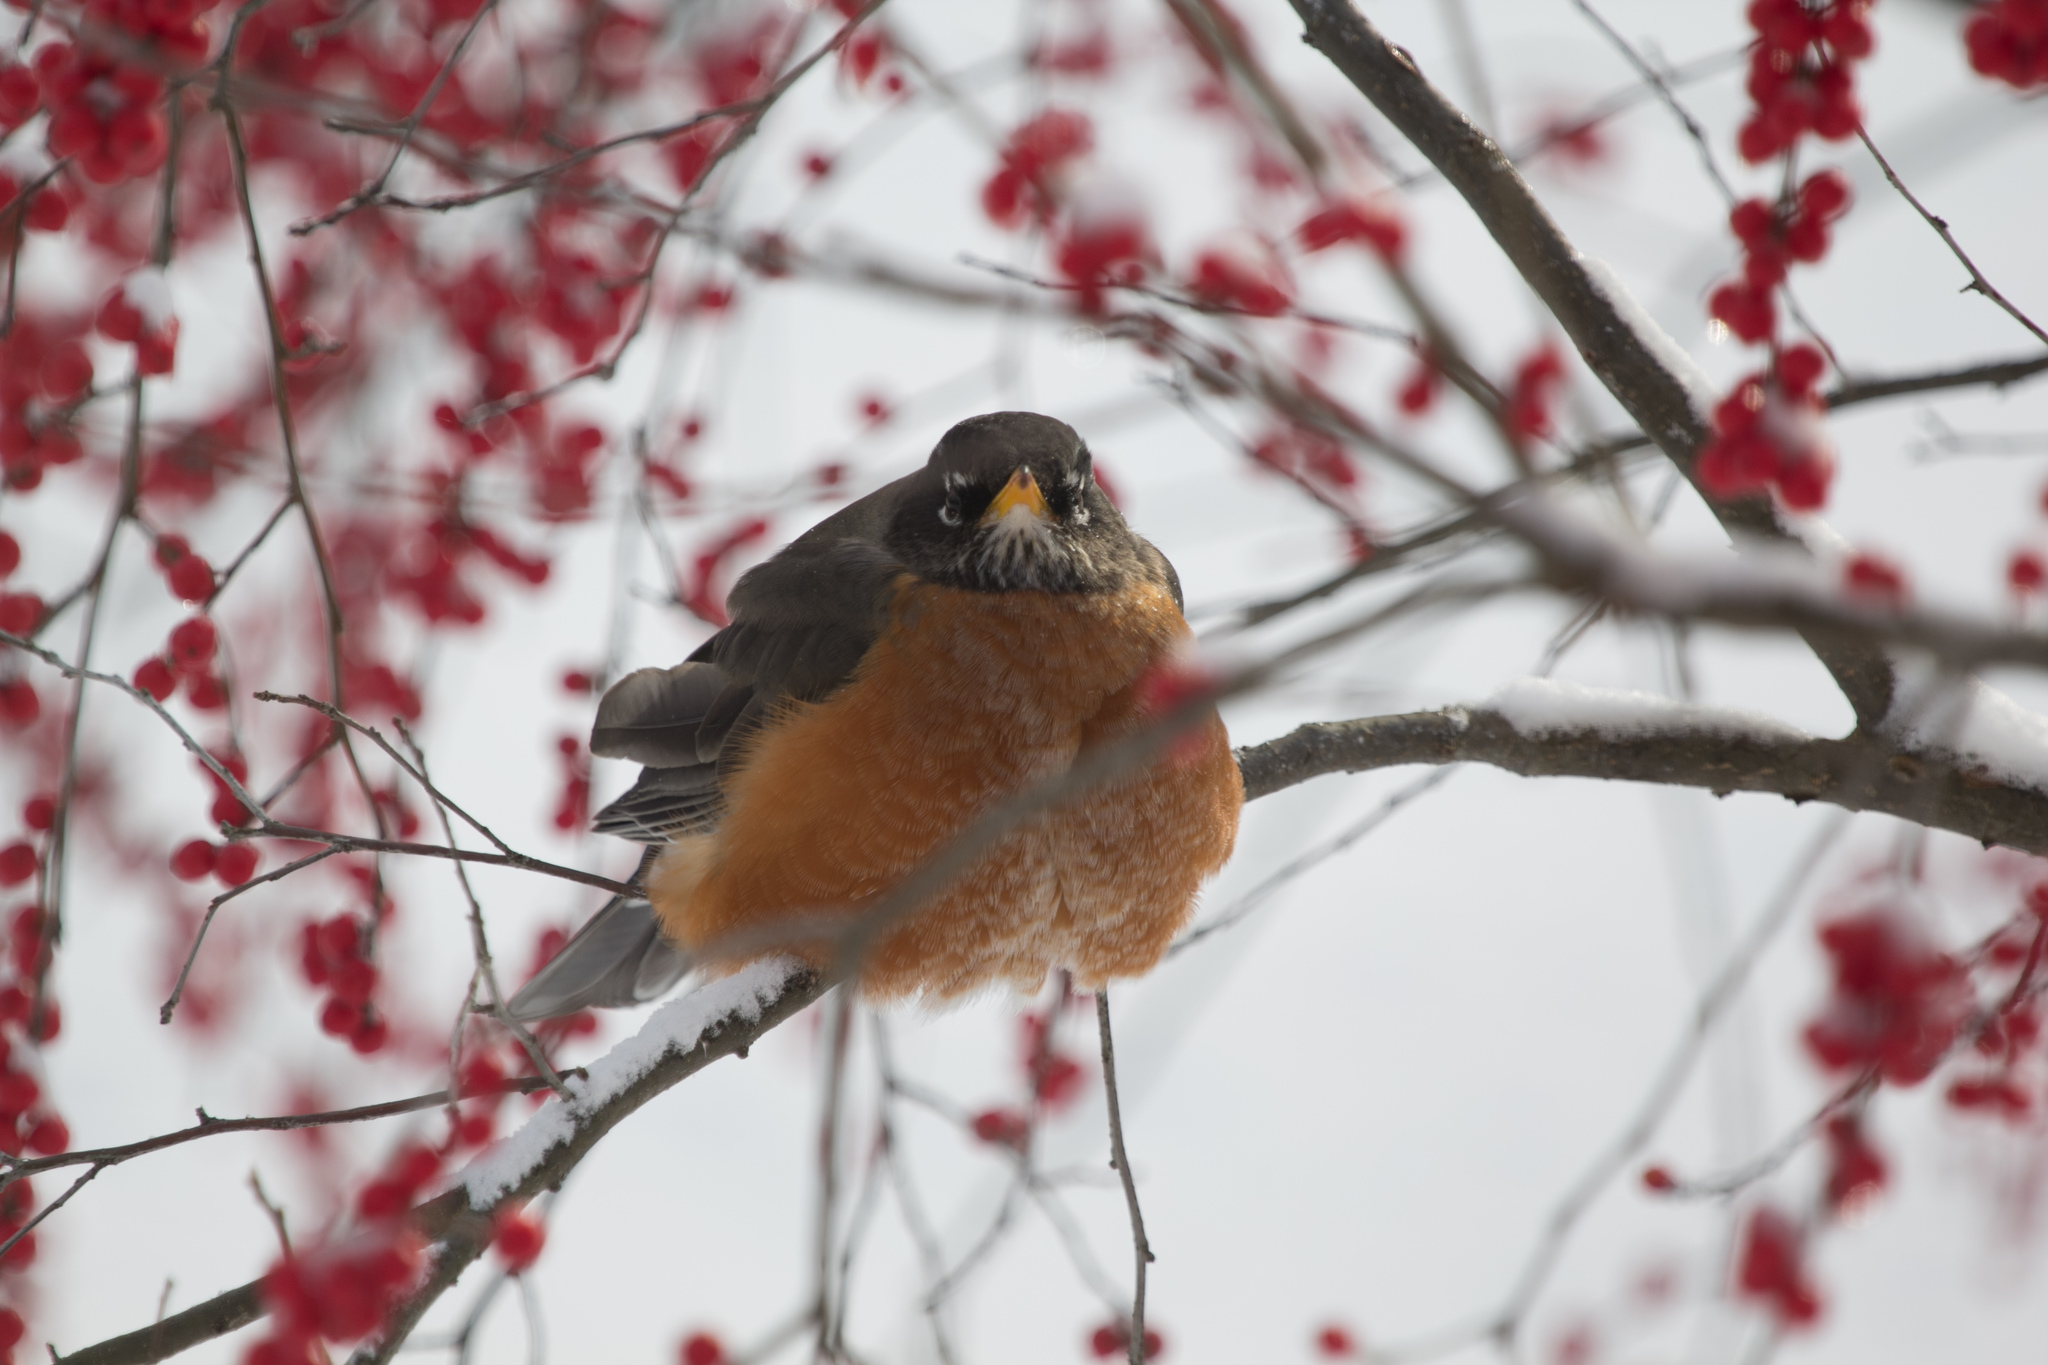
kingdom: Animalia
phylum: Chordata
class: Aves
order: Passeriformes
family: Turdidae
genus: Turdus
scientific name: Turdus migratorius
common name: American robin
